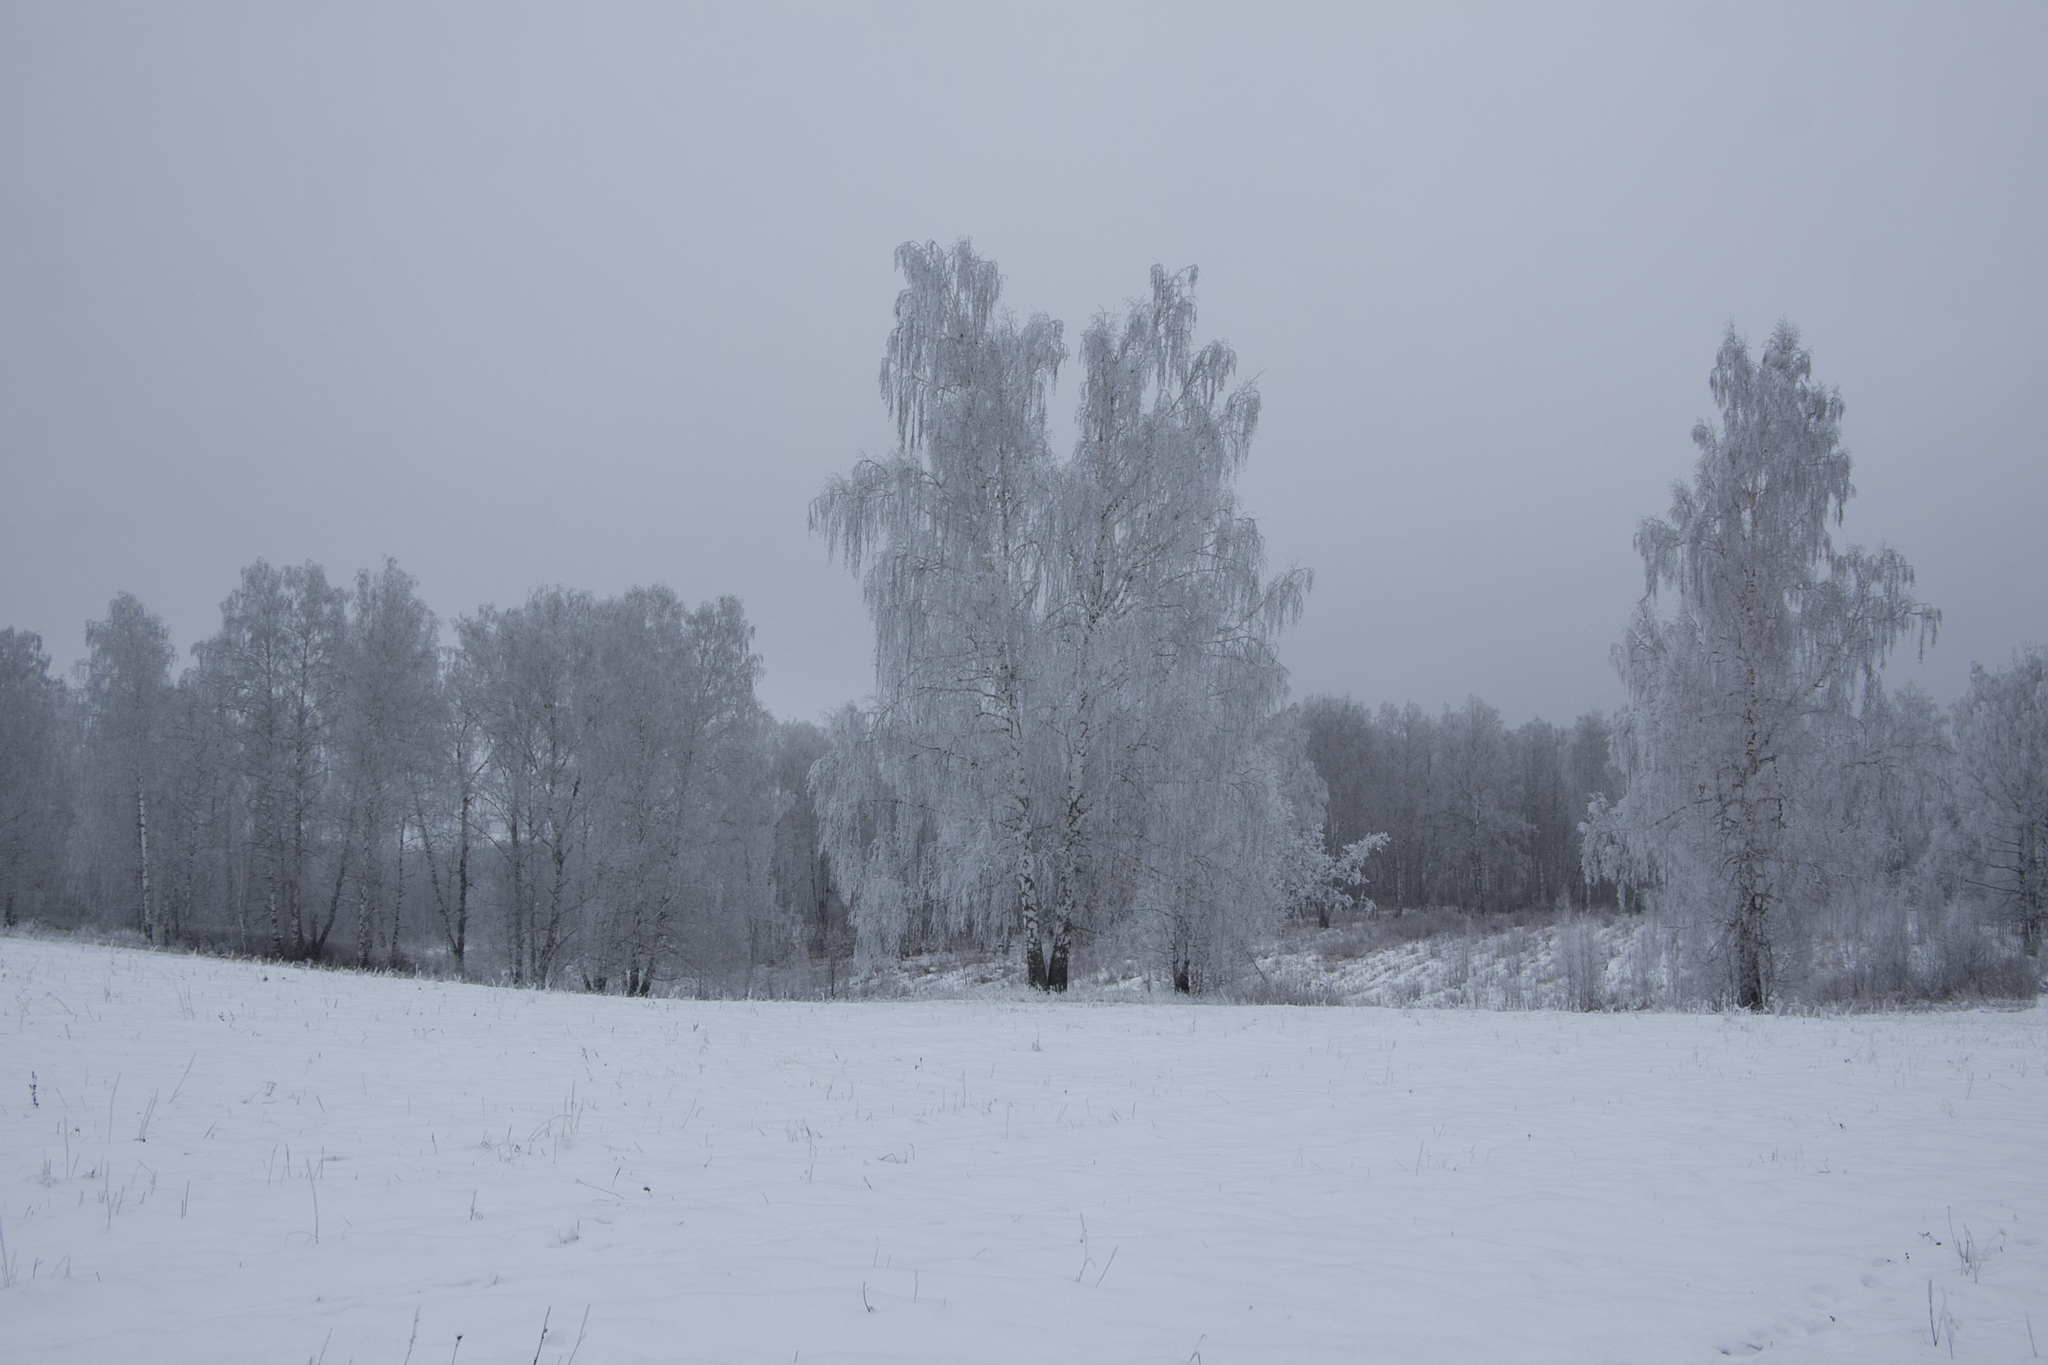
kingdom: Plantae
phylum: Tracheophyta
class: Magnoliopsida
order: Fagales
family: Betulaceae
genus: Betula
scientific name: Betula pendula
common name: Silver birch
